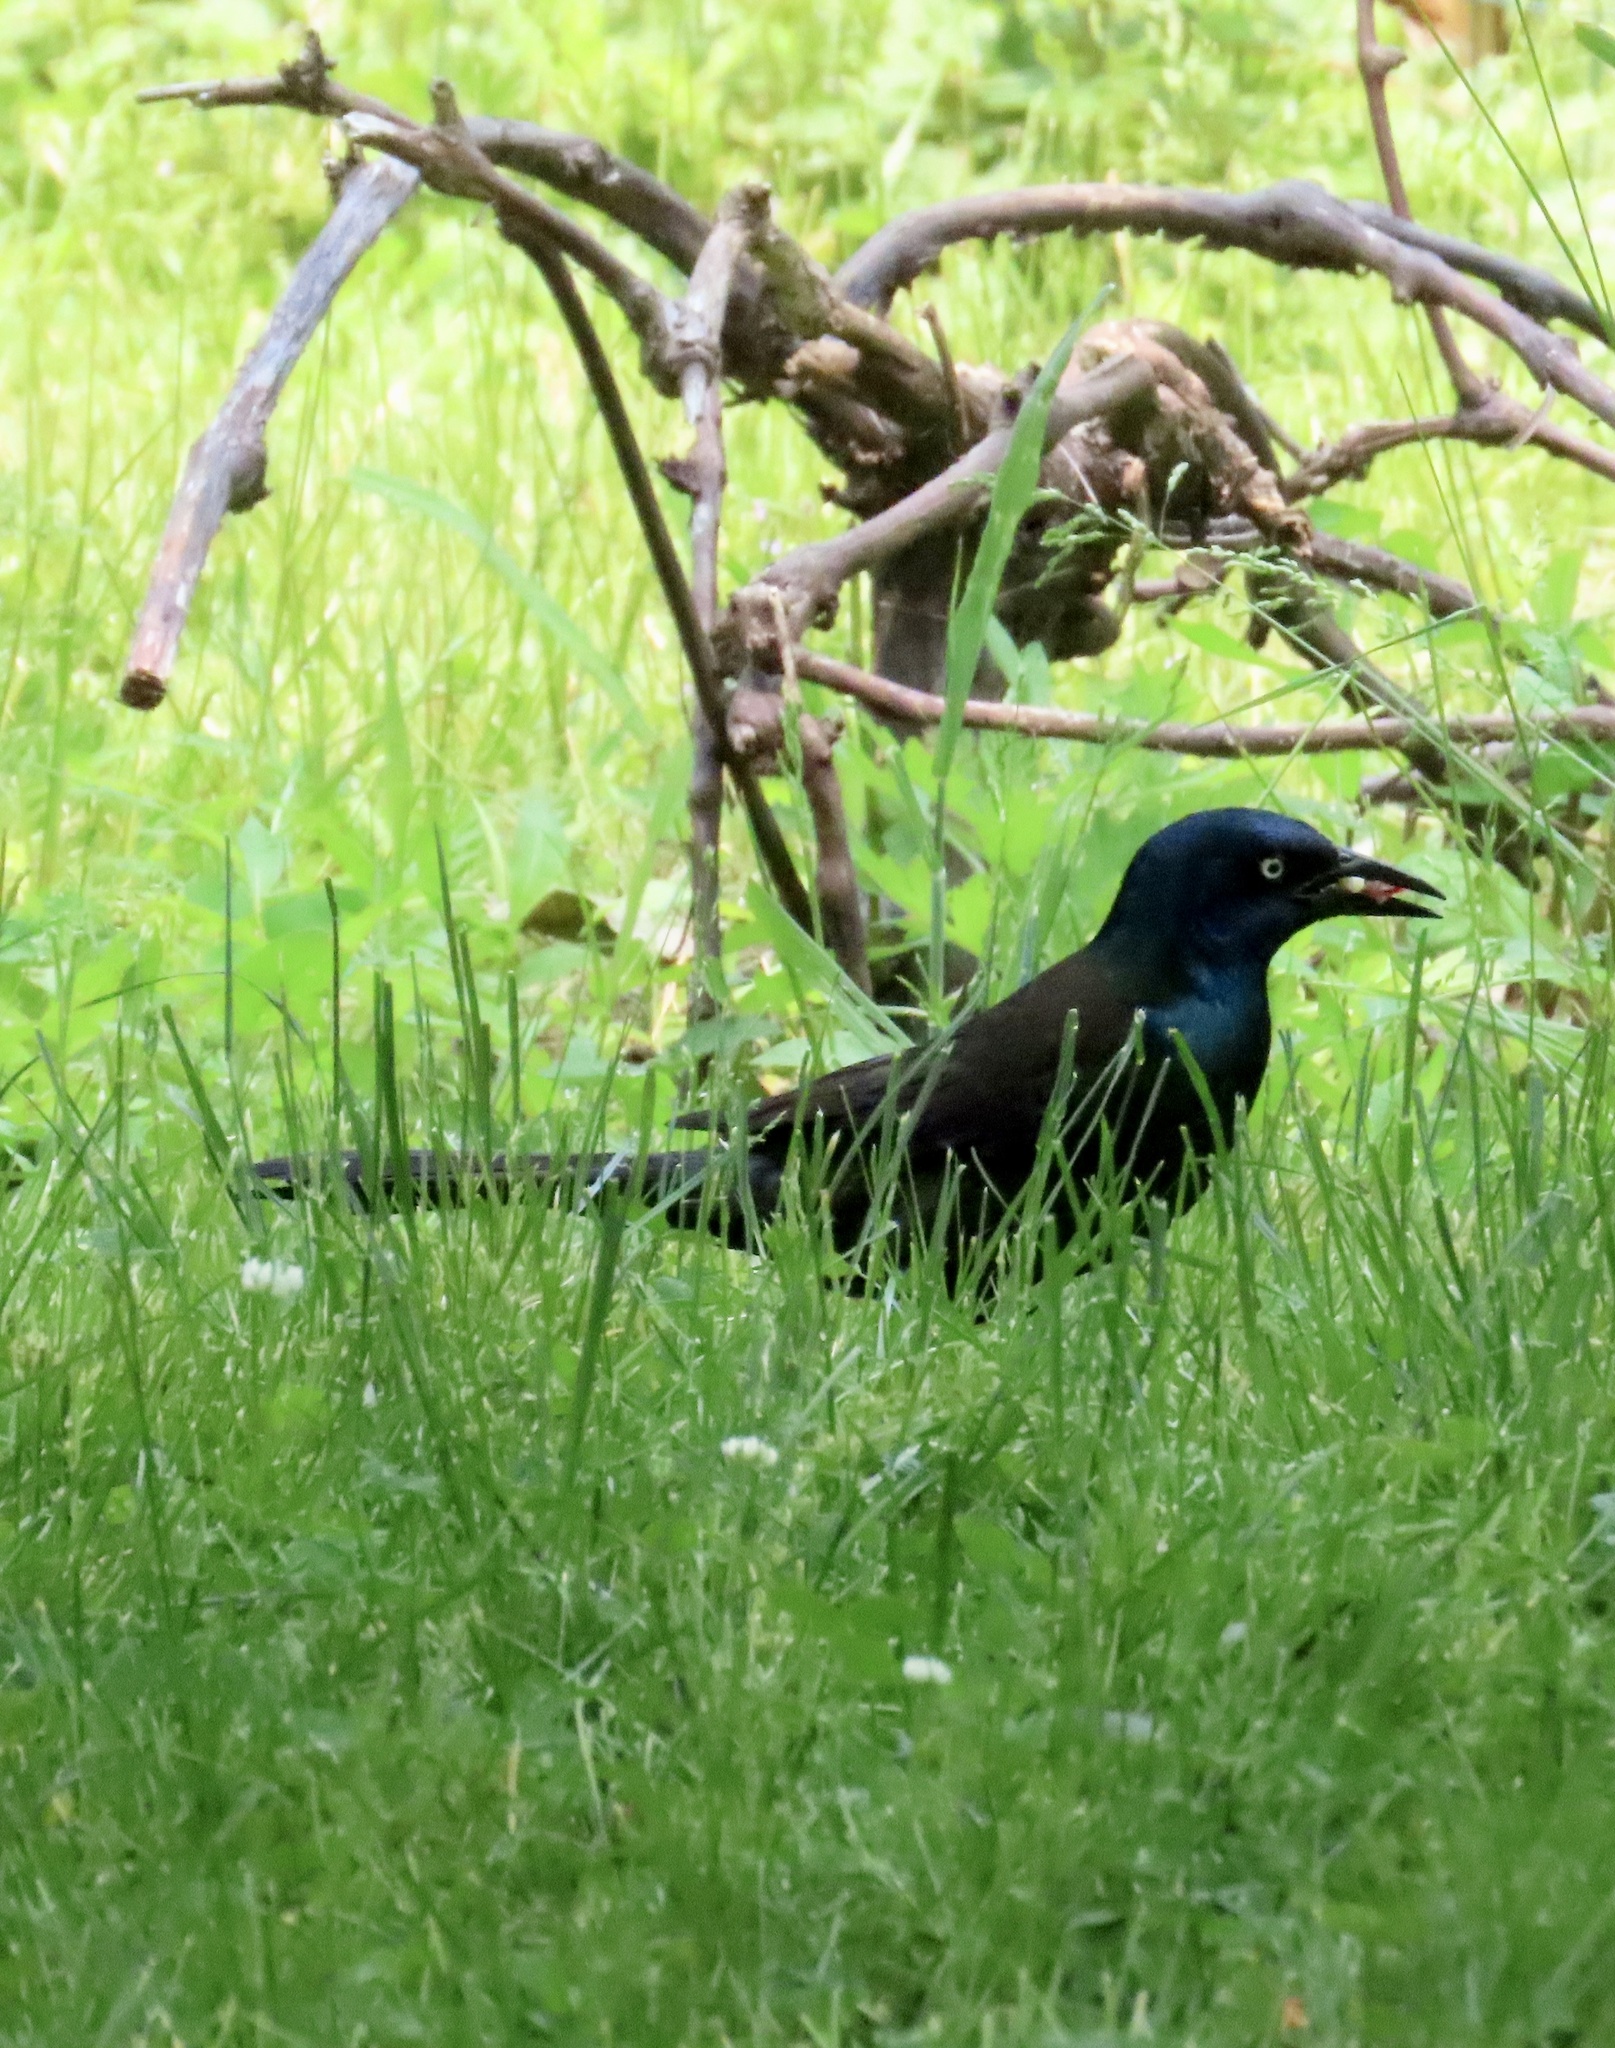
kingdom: Animalia
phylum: Chordata
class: Aves
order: Passeriformes
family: Icteridae
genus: Quiscalus
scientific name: Quiscalus quiscula
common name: Common grackle
